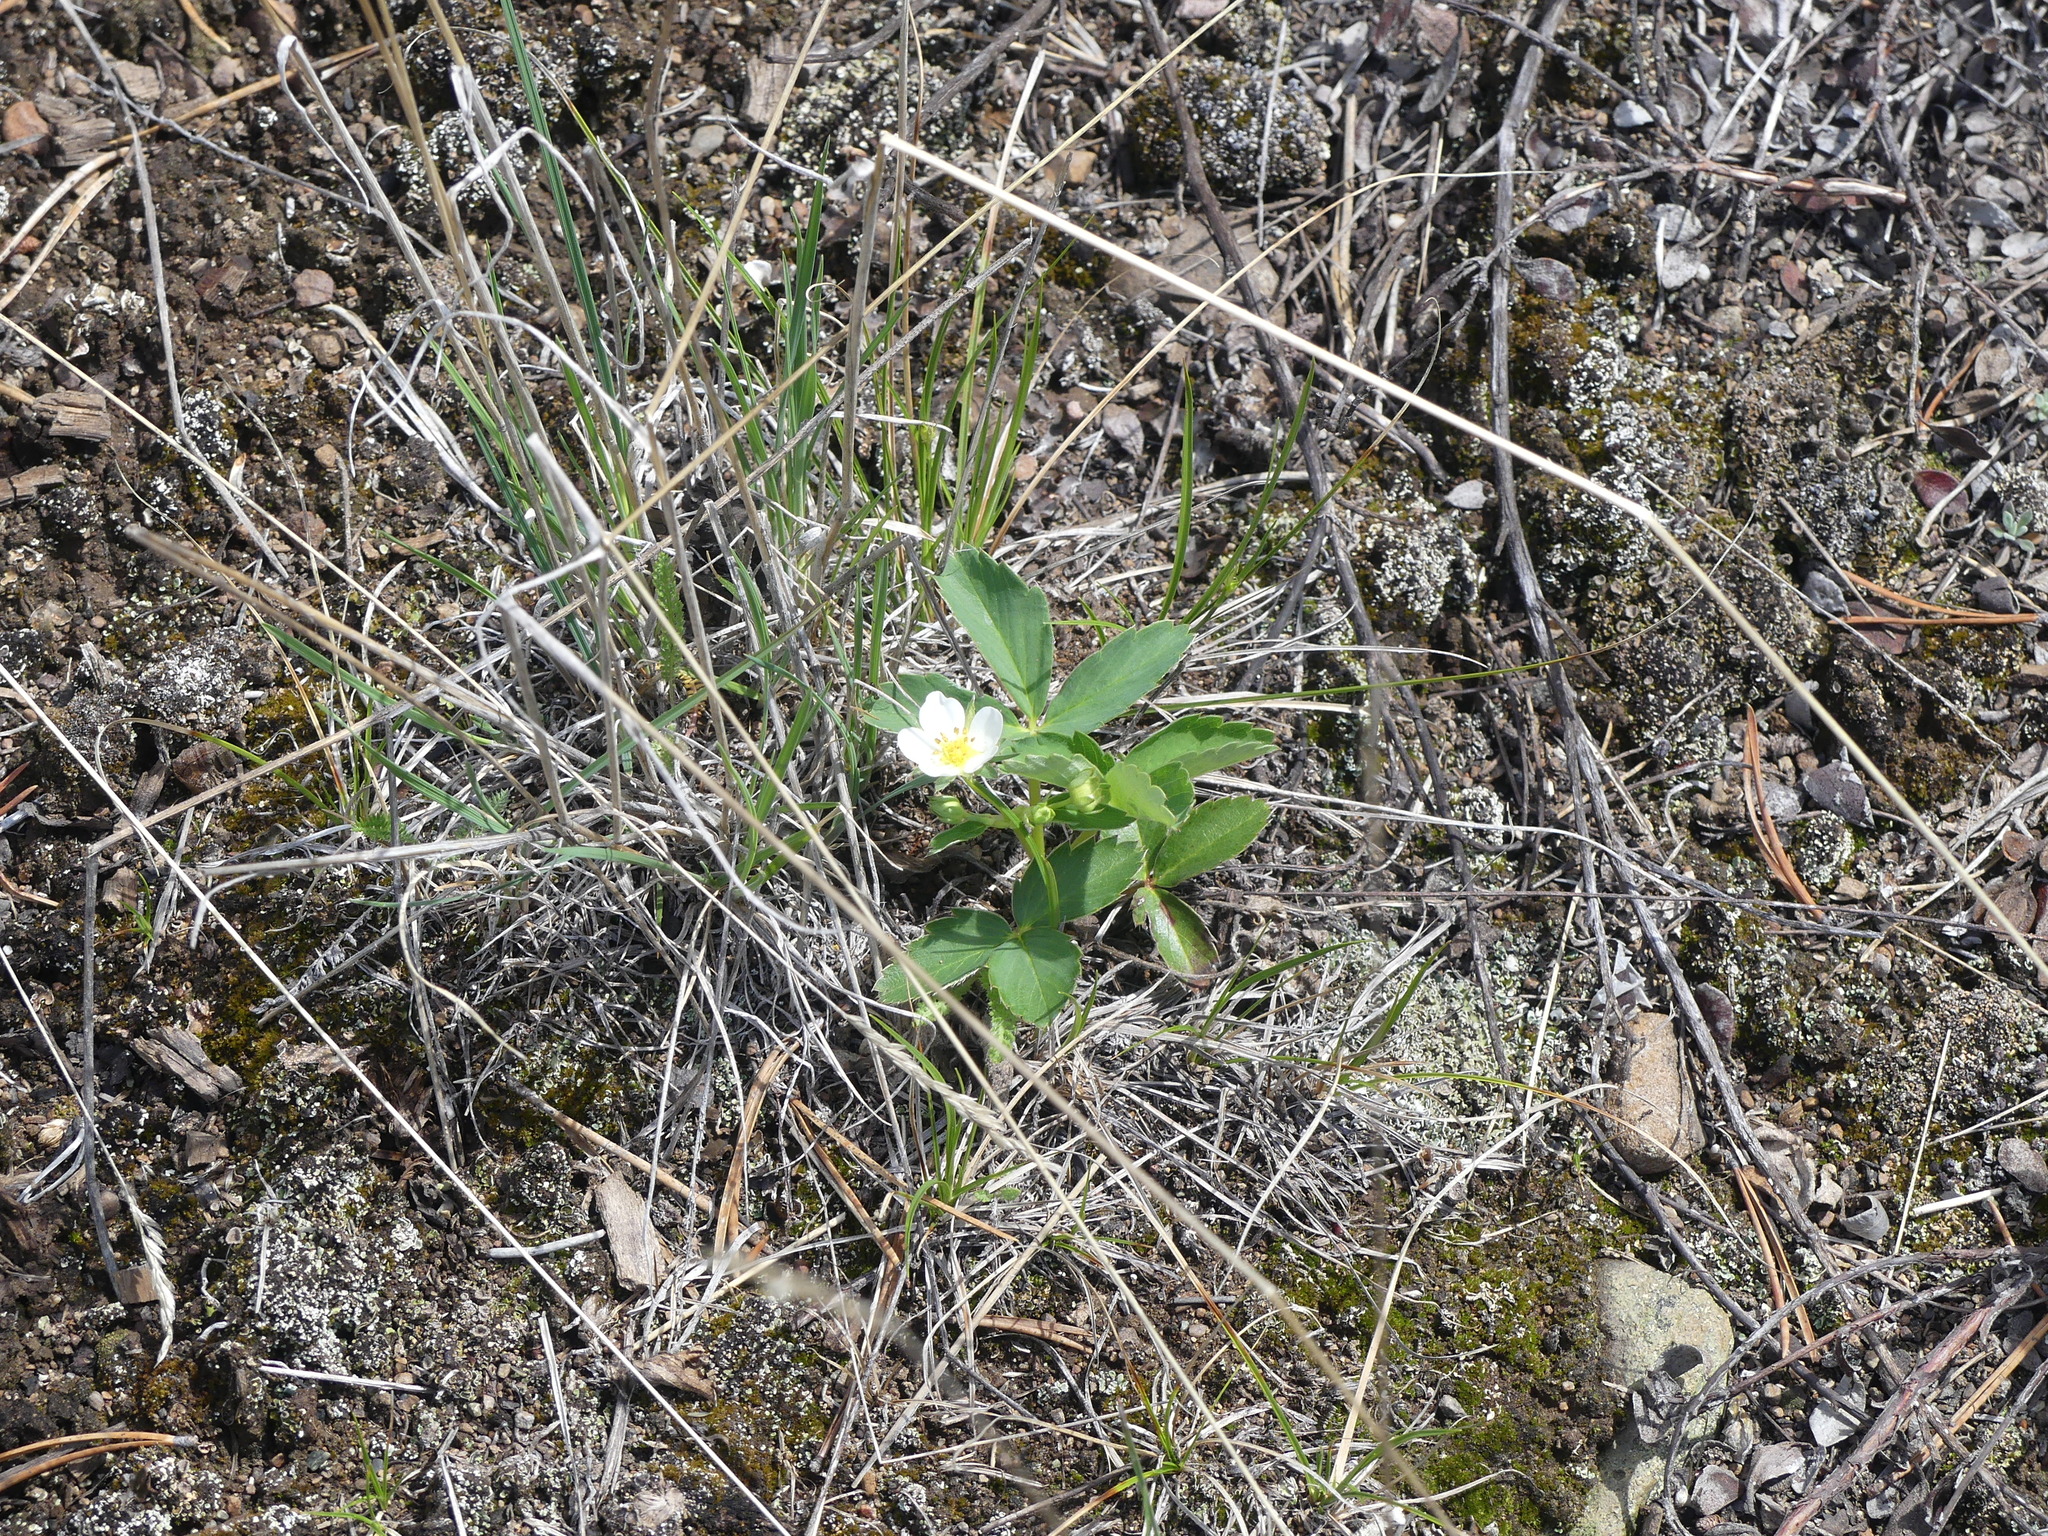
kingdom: Plantae
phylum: Tracheophyta
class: Magnoliopsida
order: Rosales
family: Rosaceae
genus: Fragaria
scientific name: Fragaria virginiana
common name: Thickleaved wild strawberry
